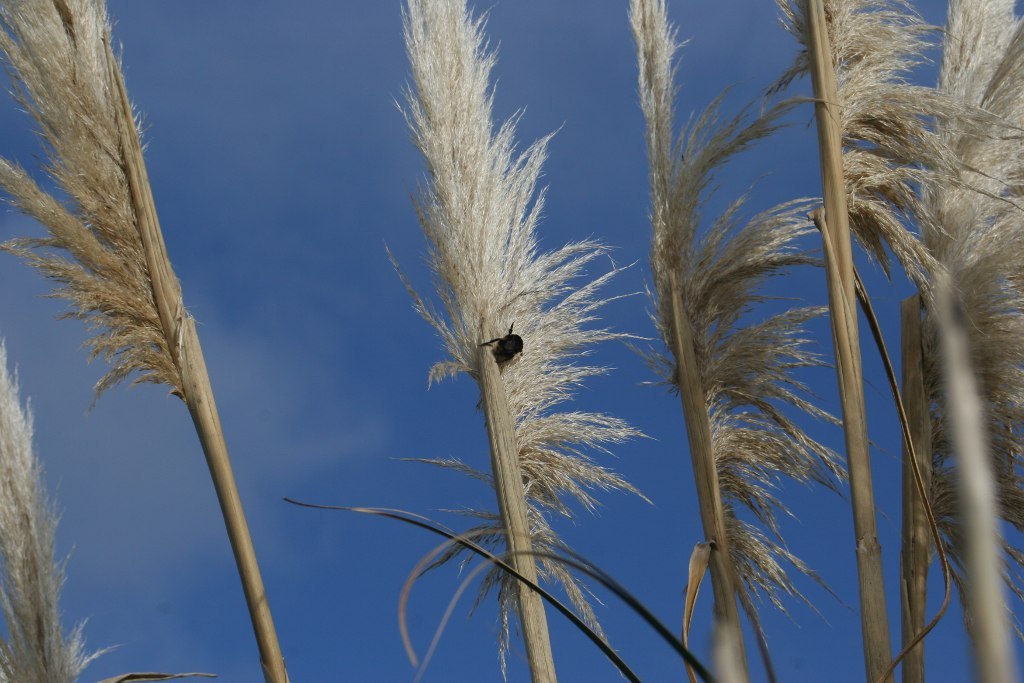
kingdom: Animalia
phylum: Arthropoda
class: Insecta
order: Hymenoptera
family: Apidae
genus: Bombus
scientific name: Bombus terrestris
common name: Buff-tailed bumblebee
